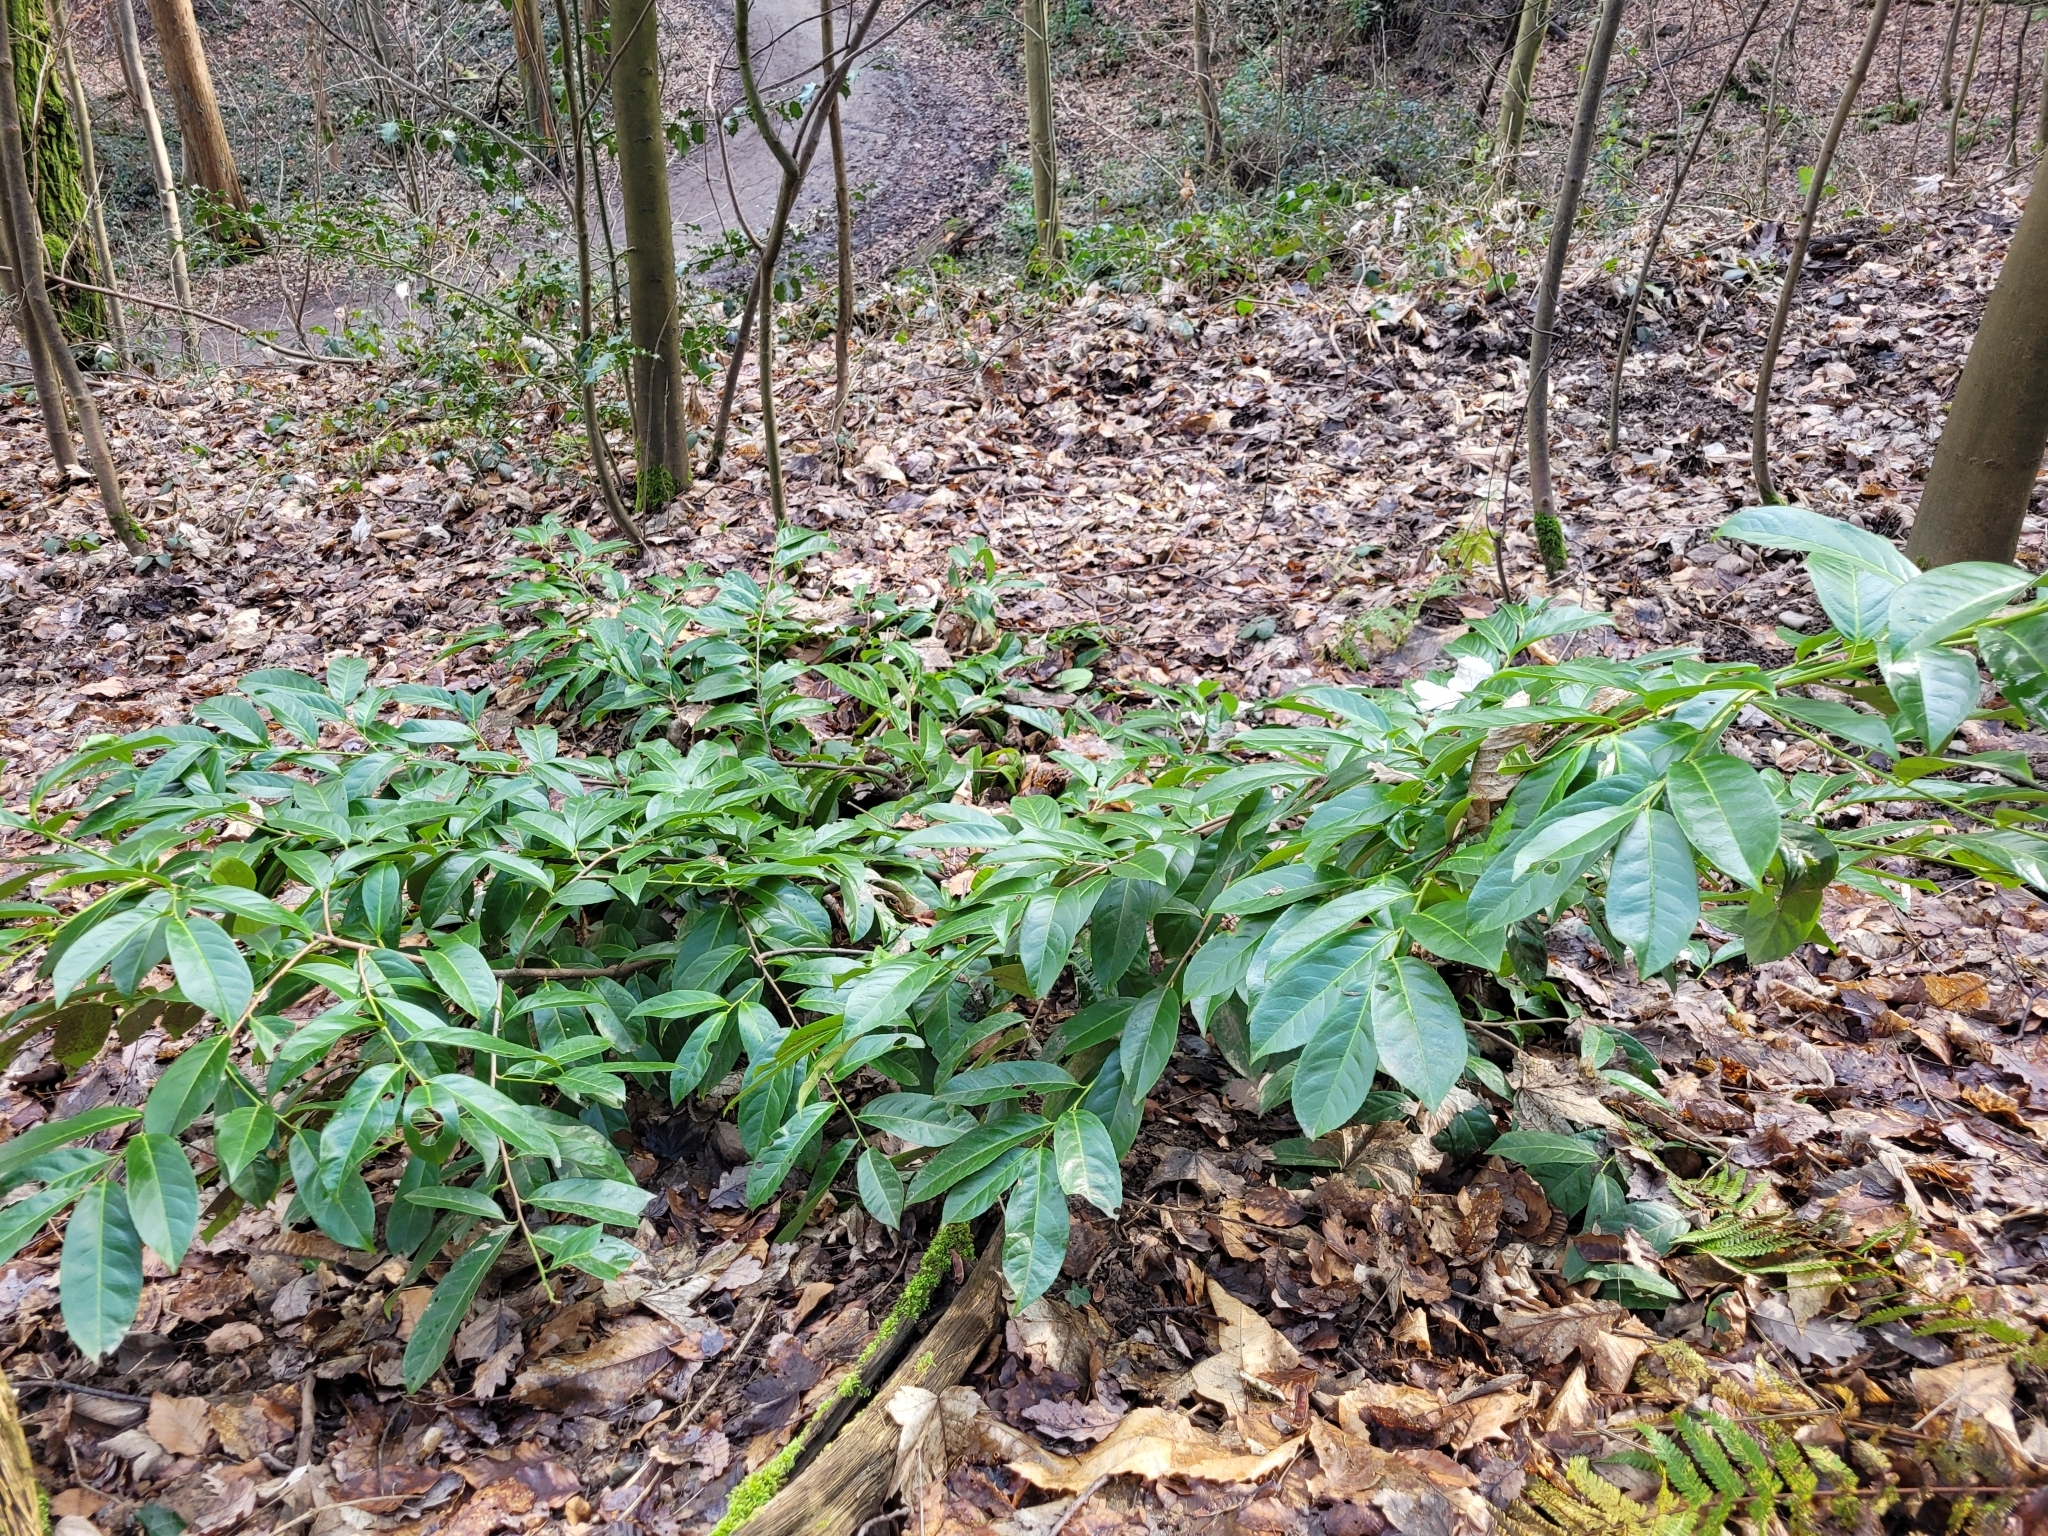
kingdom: Plantae
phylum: Tracheophyta
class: Magnoliopsida
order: Rosales
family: Rosaceae
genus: Prunus
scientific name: Prunus laurocerasus
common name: Cherry laurel
